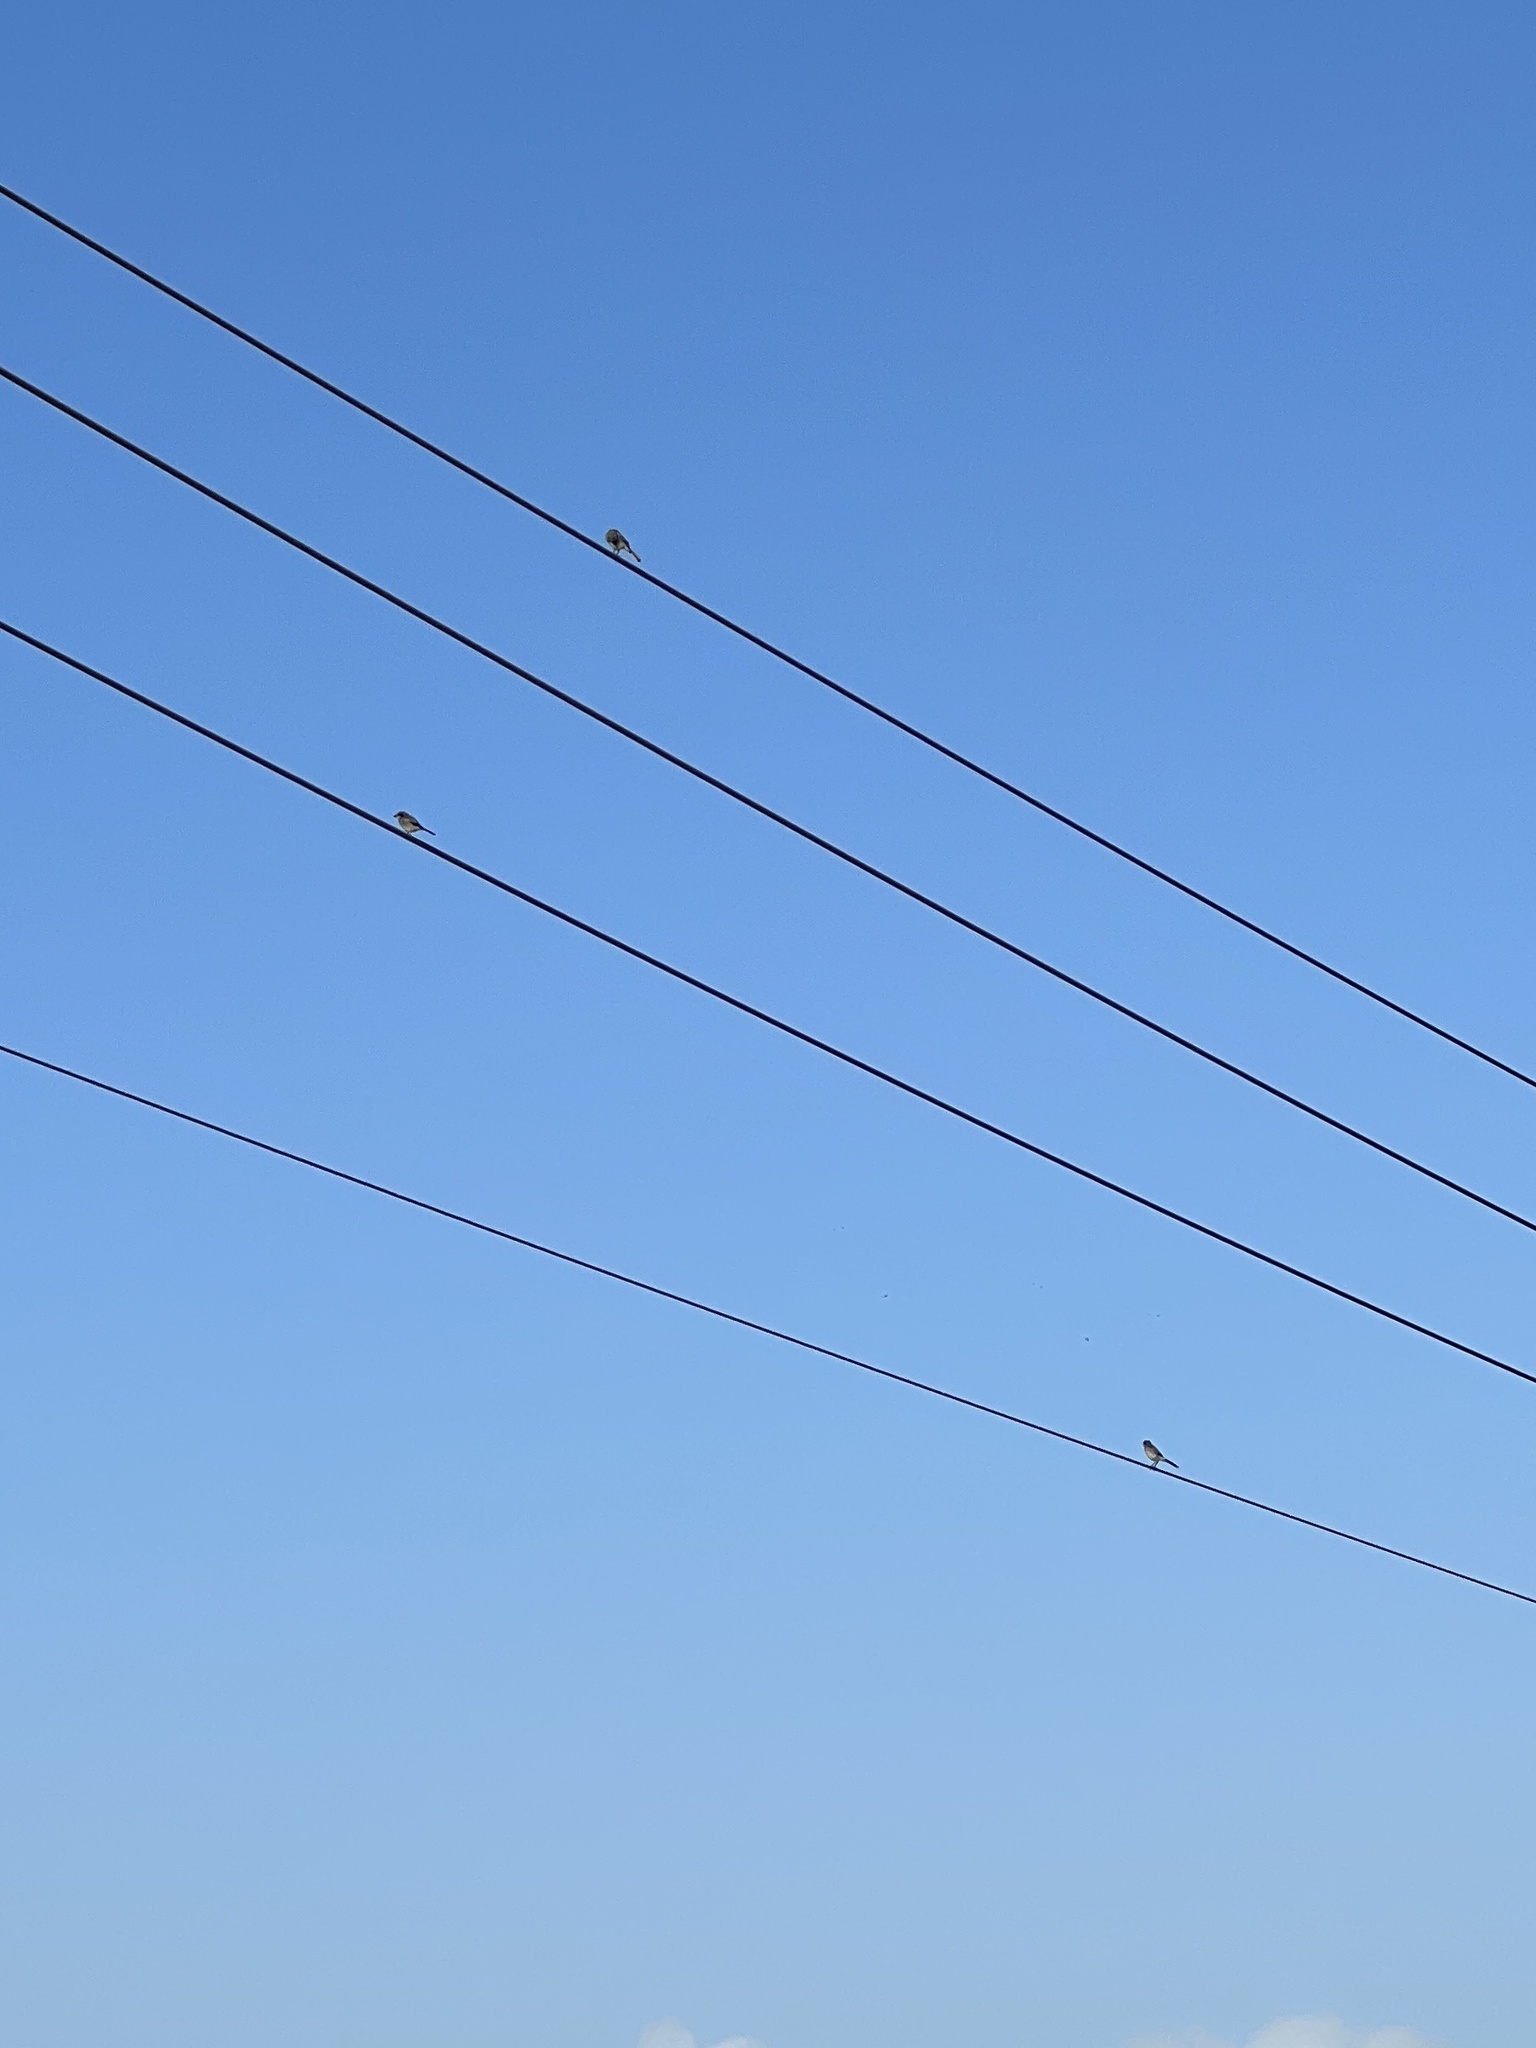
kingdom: Animalia
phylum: Chordata
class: Aves
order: Passeriformes
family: Laniidae
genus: Lanius
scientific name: Lanius ludovicianus
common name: Loggerhead shrike
